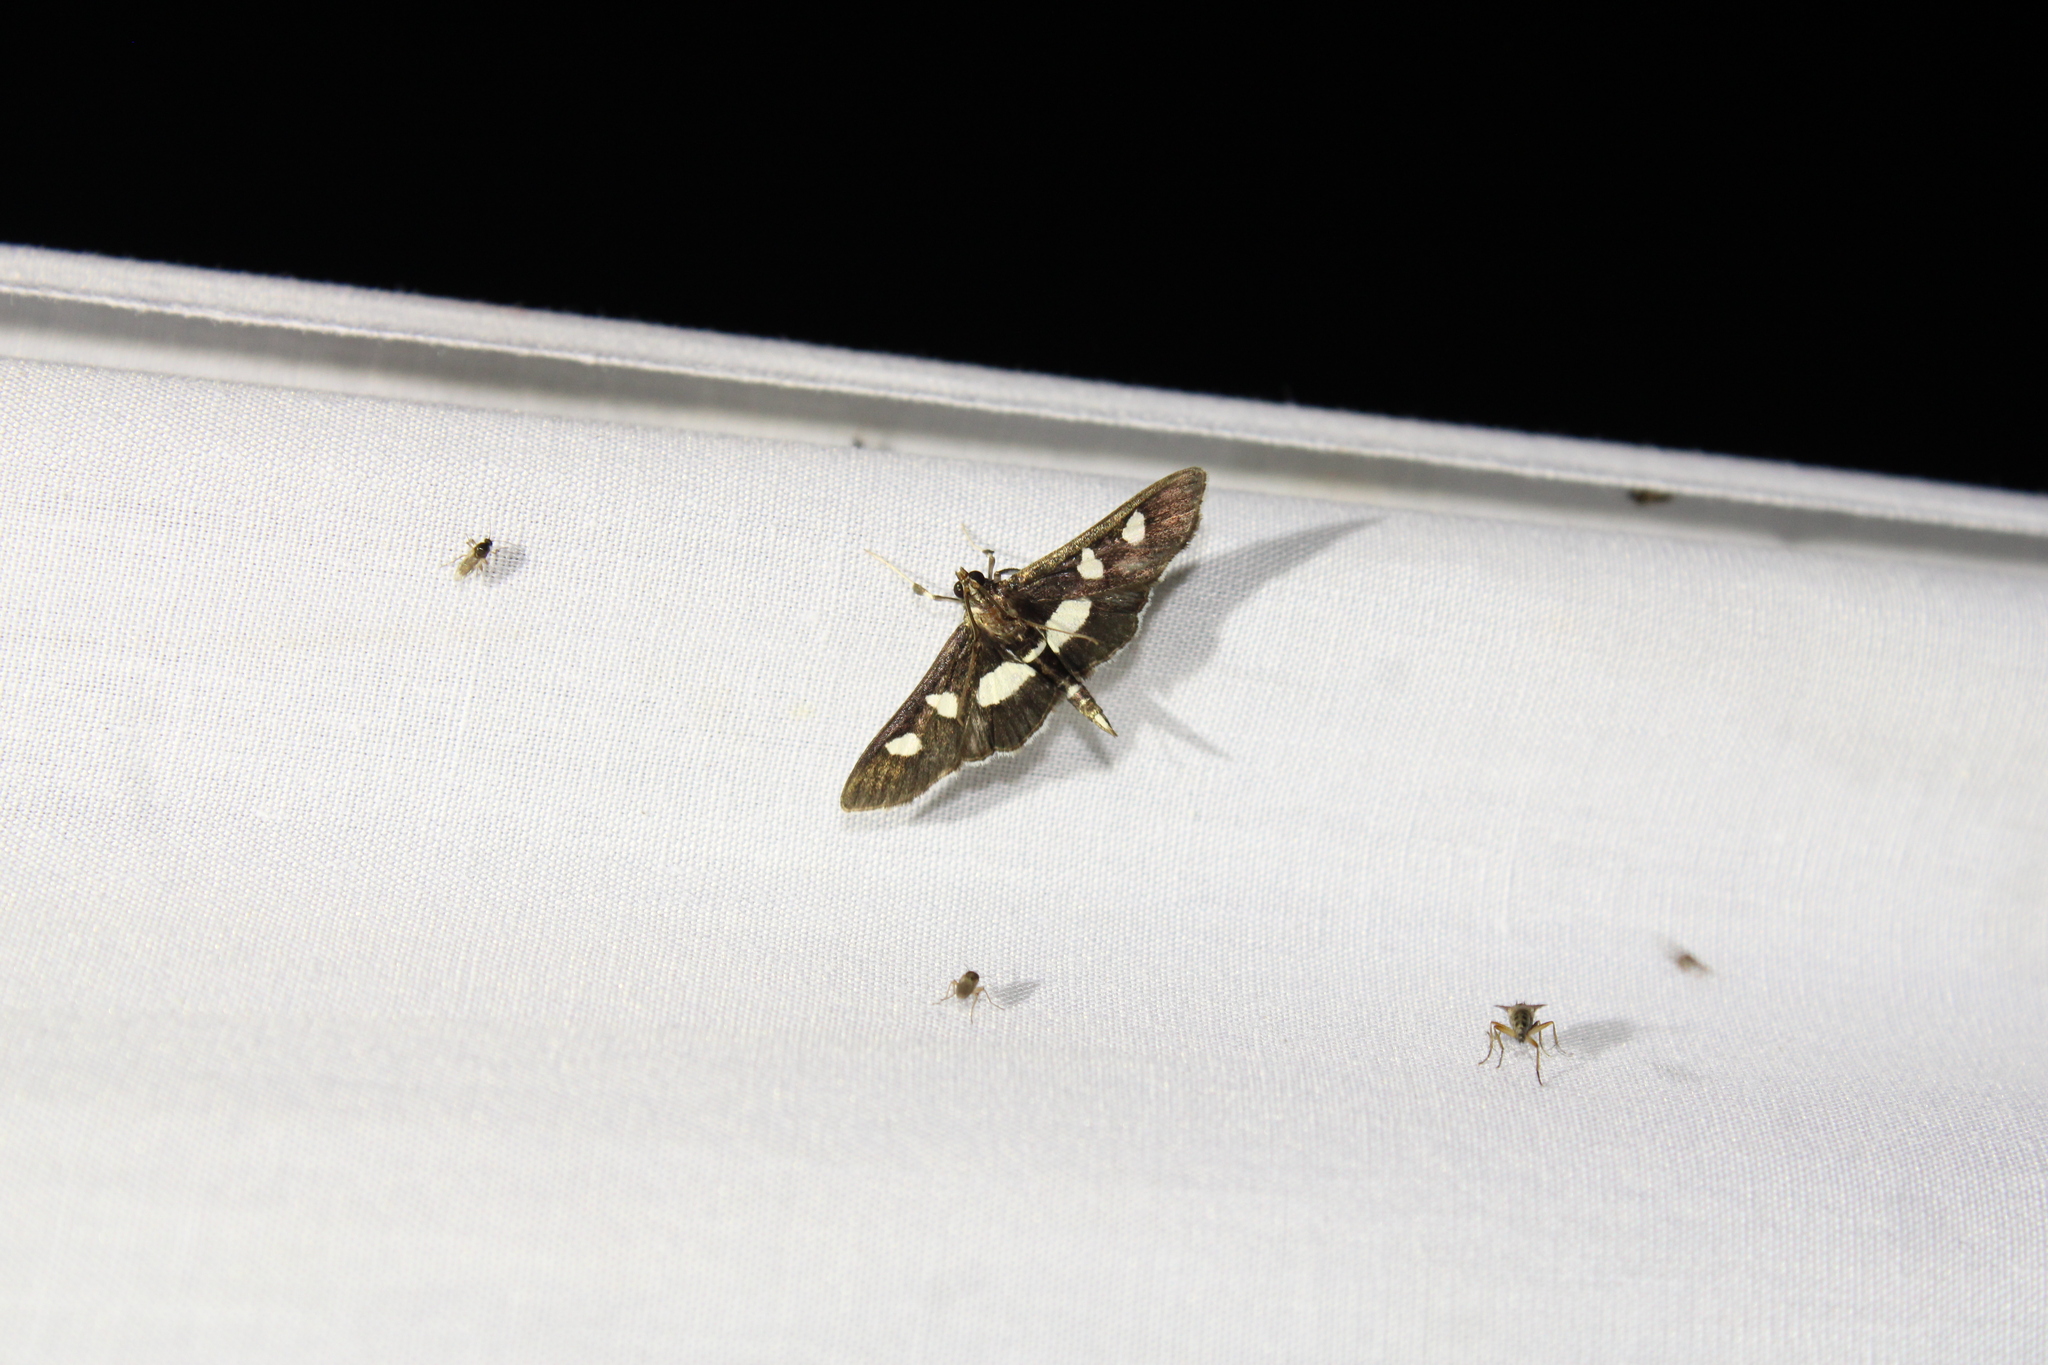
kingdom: Animalia
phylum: Arthropoda
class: Insecta
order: Lepidoptera
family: Crambidae
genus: Desmia
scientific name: Desmia
